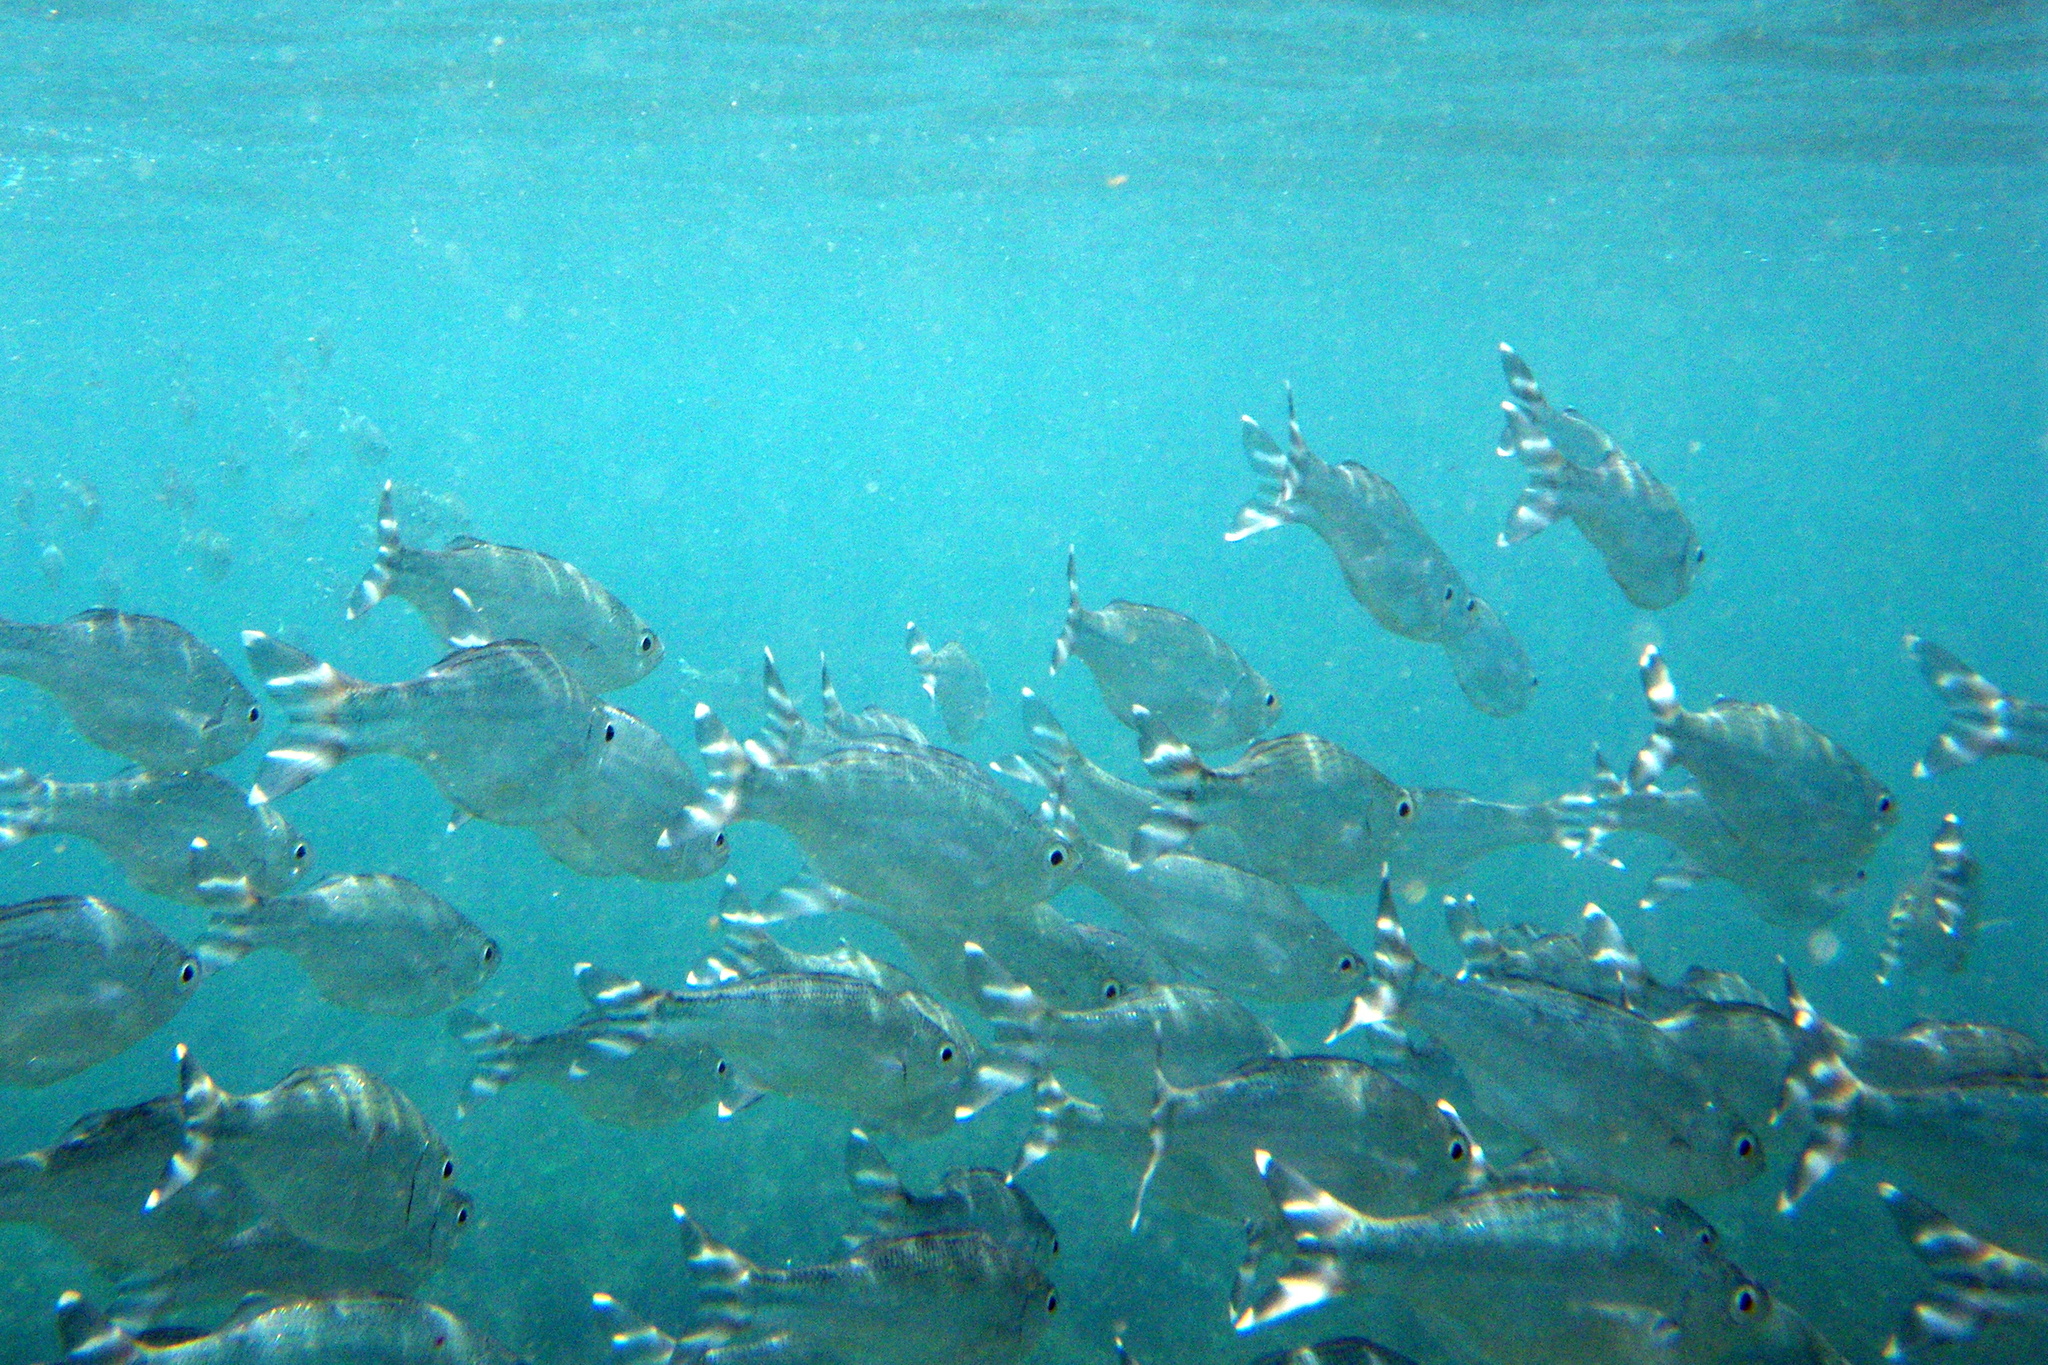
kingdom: Animalia
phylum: Chordata
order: Perciformes
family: Kuhliidae
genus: Kuhlia
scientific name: Kuhlia mugil
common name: Barred flagtail
